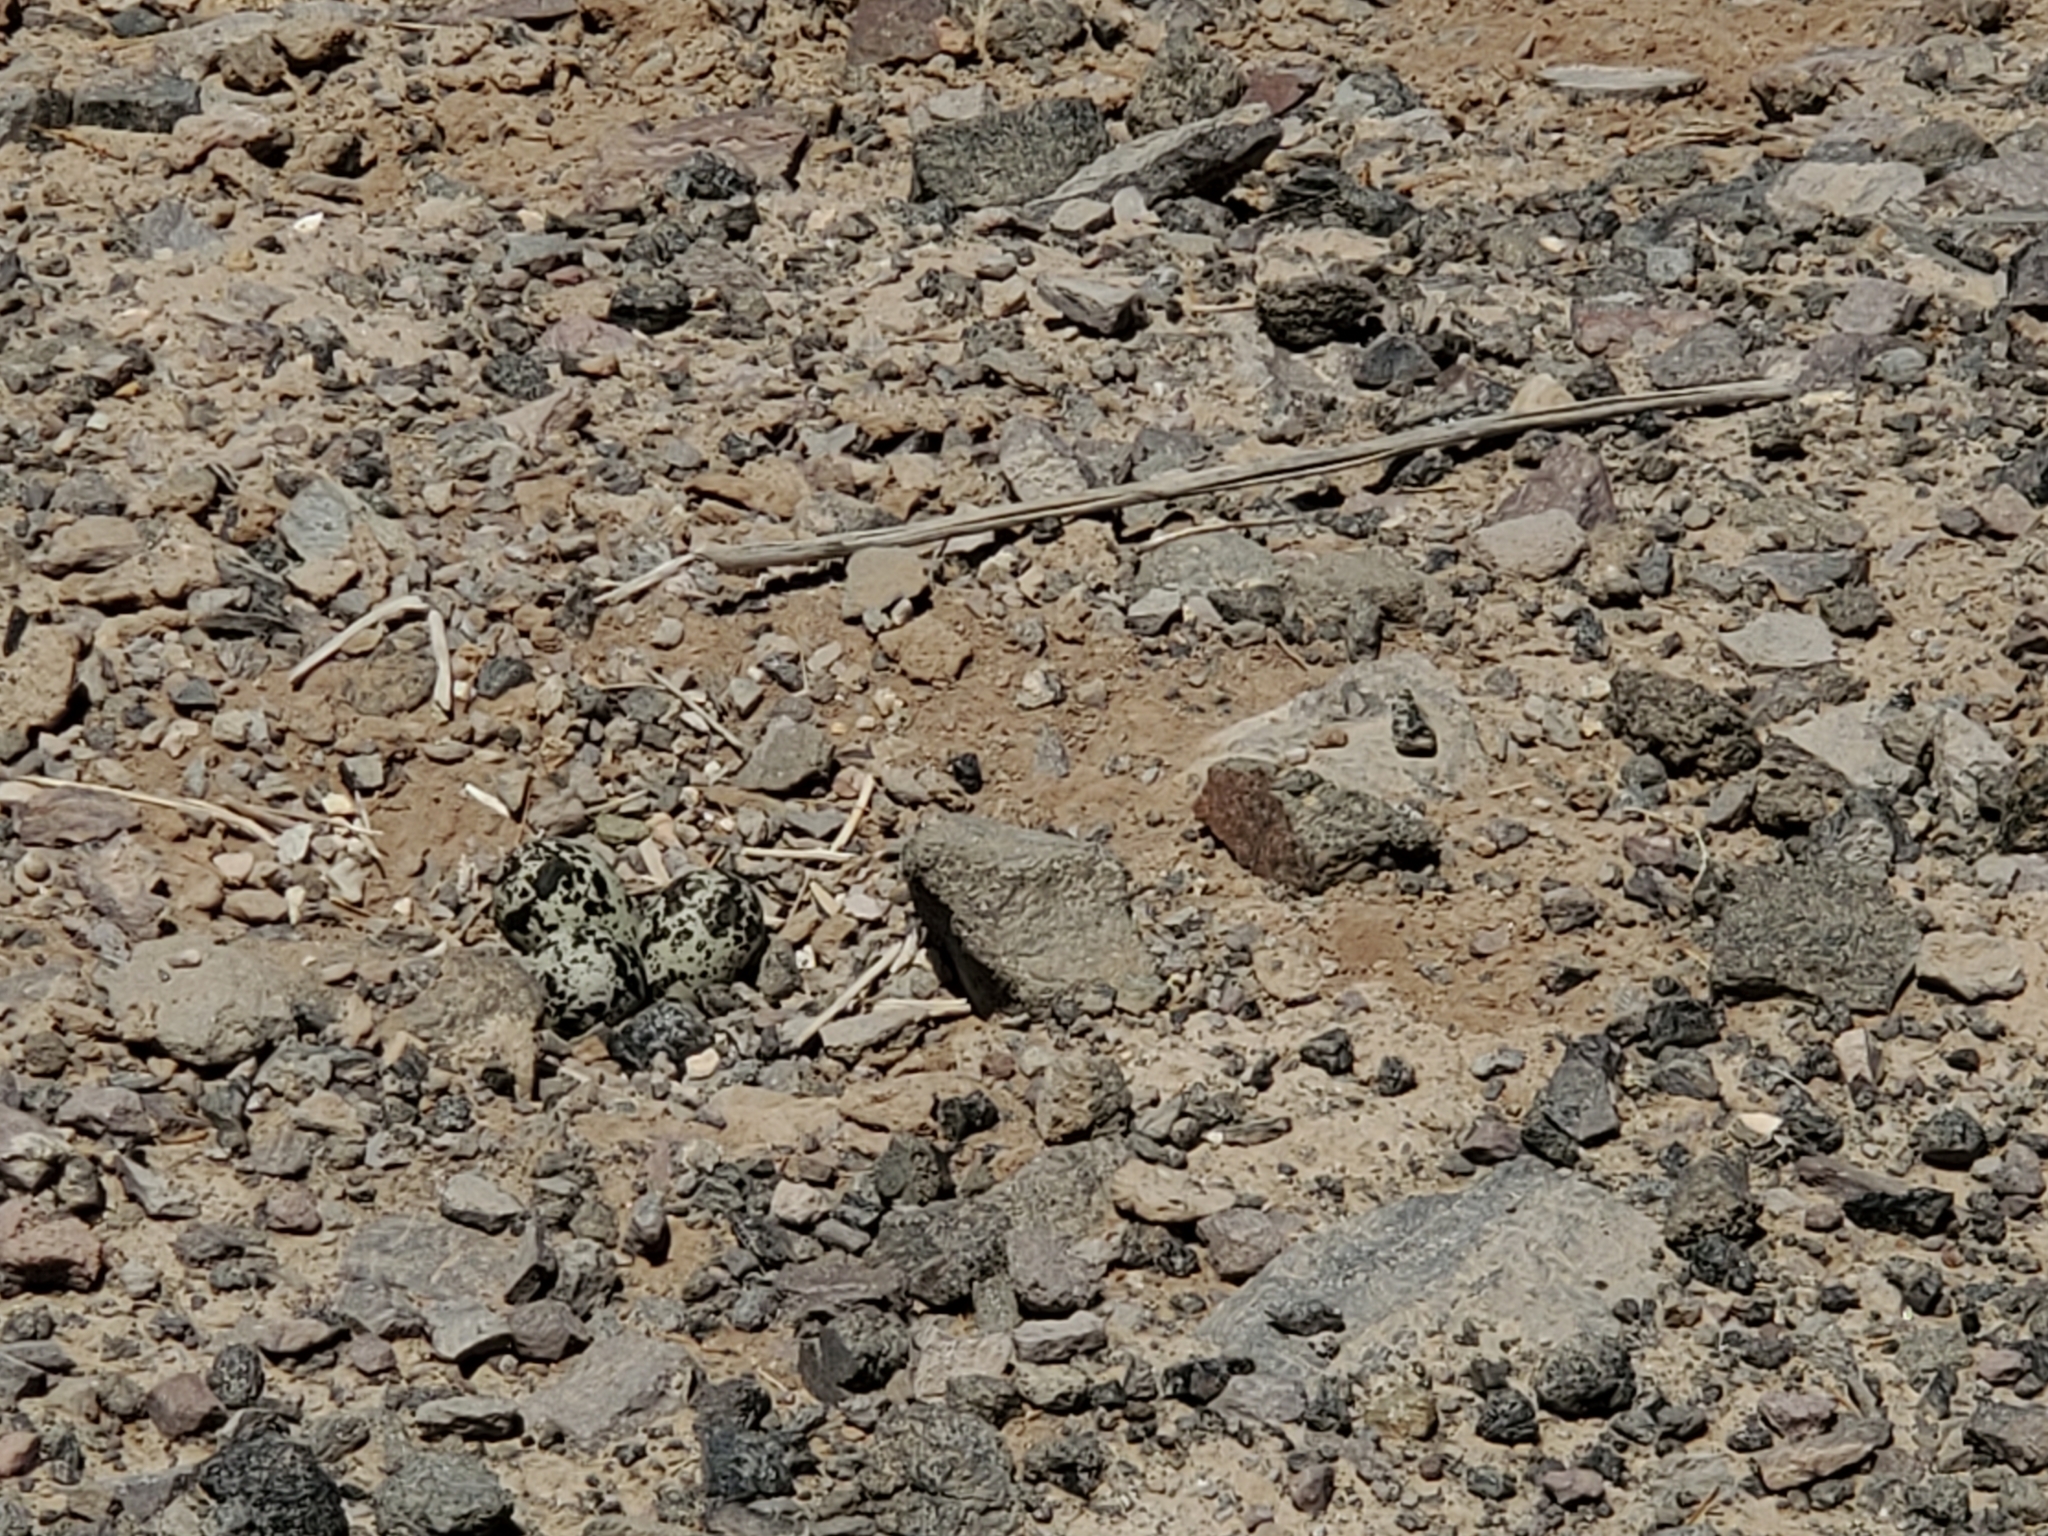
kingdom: Animalia
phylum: Chordata
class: Aves
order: Charadriiformes
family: Charadriidae
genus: Charadrius
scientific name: Charadrius vociferus
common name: Killdeer
